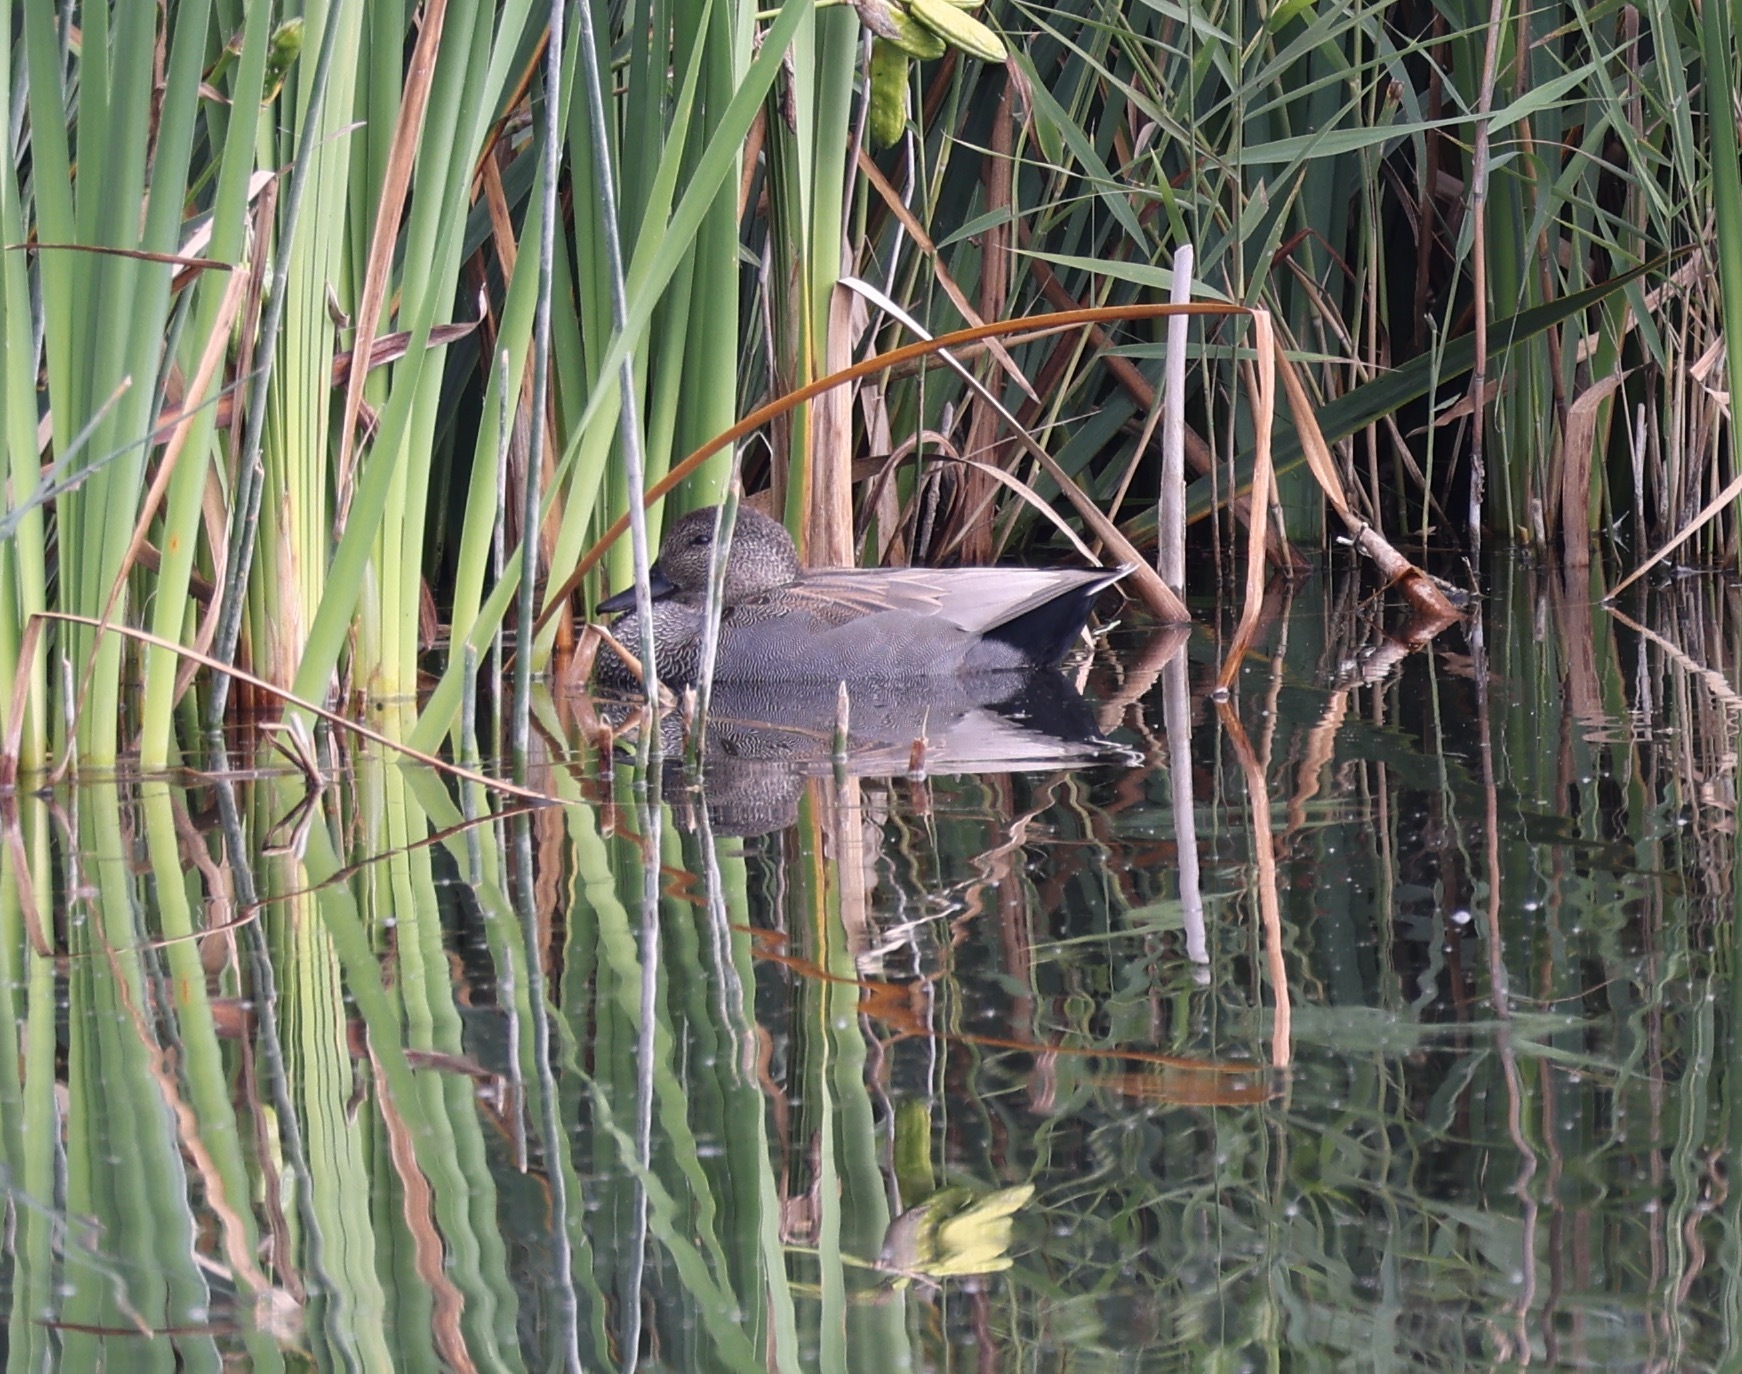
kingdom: Animalia
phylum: Chordata
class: Aves
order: Anseriformes
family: Anatidae
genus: Mareca
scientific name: Mareca strepera
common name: Gadwall
